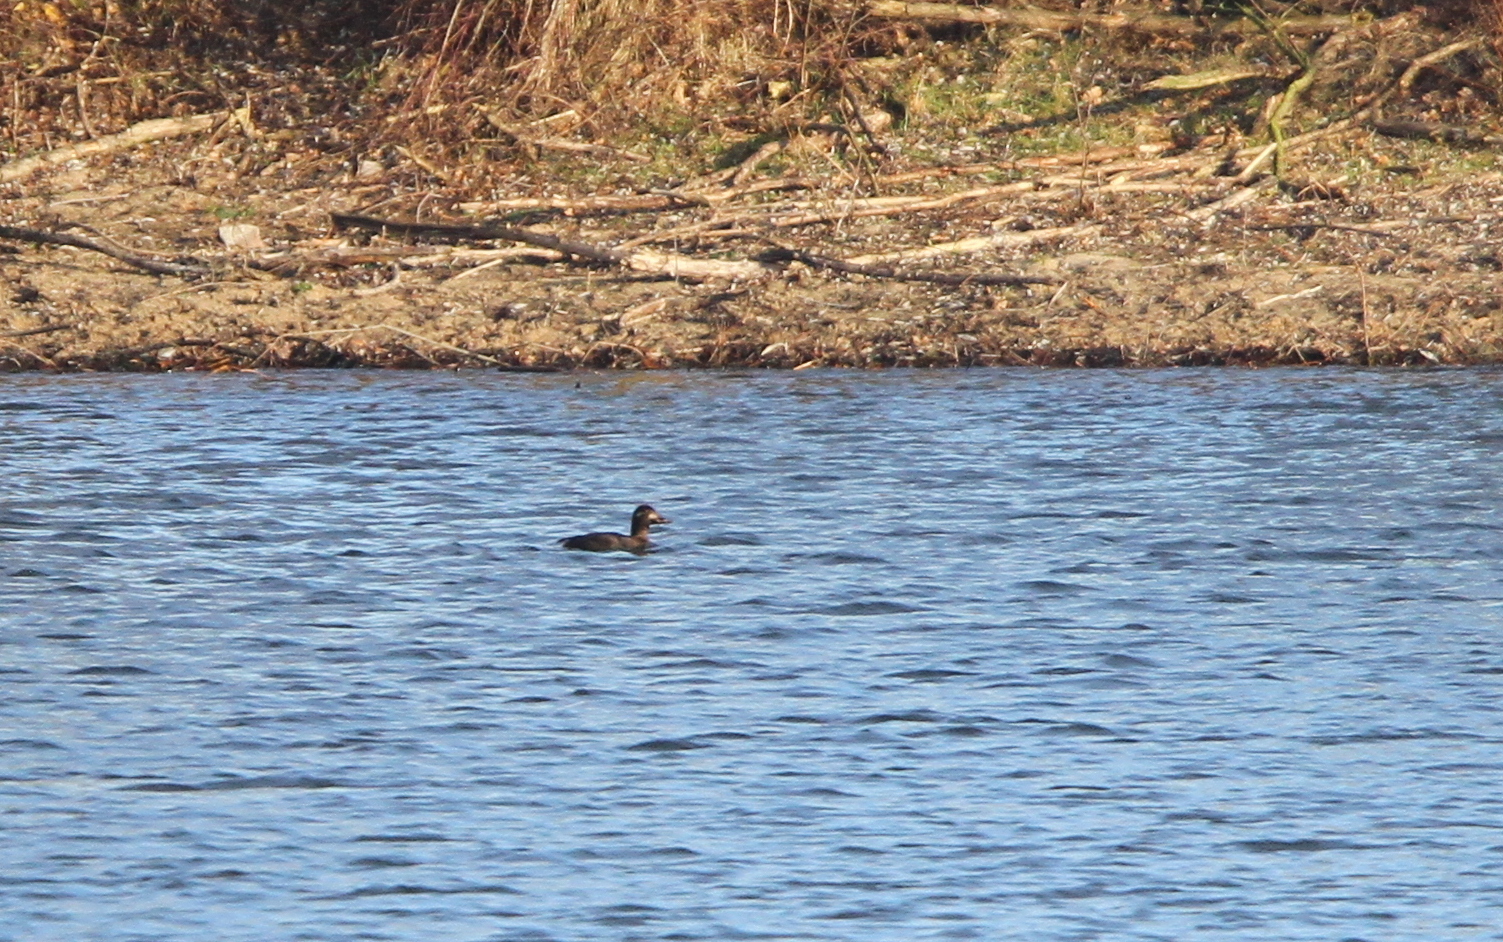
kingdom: Animalia
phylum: Chordata
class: Aves
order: Anseriformes
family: Anatidae
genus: Melanitta
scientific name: Melanitta fusca
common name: Velvet scoter
